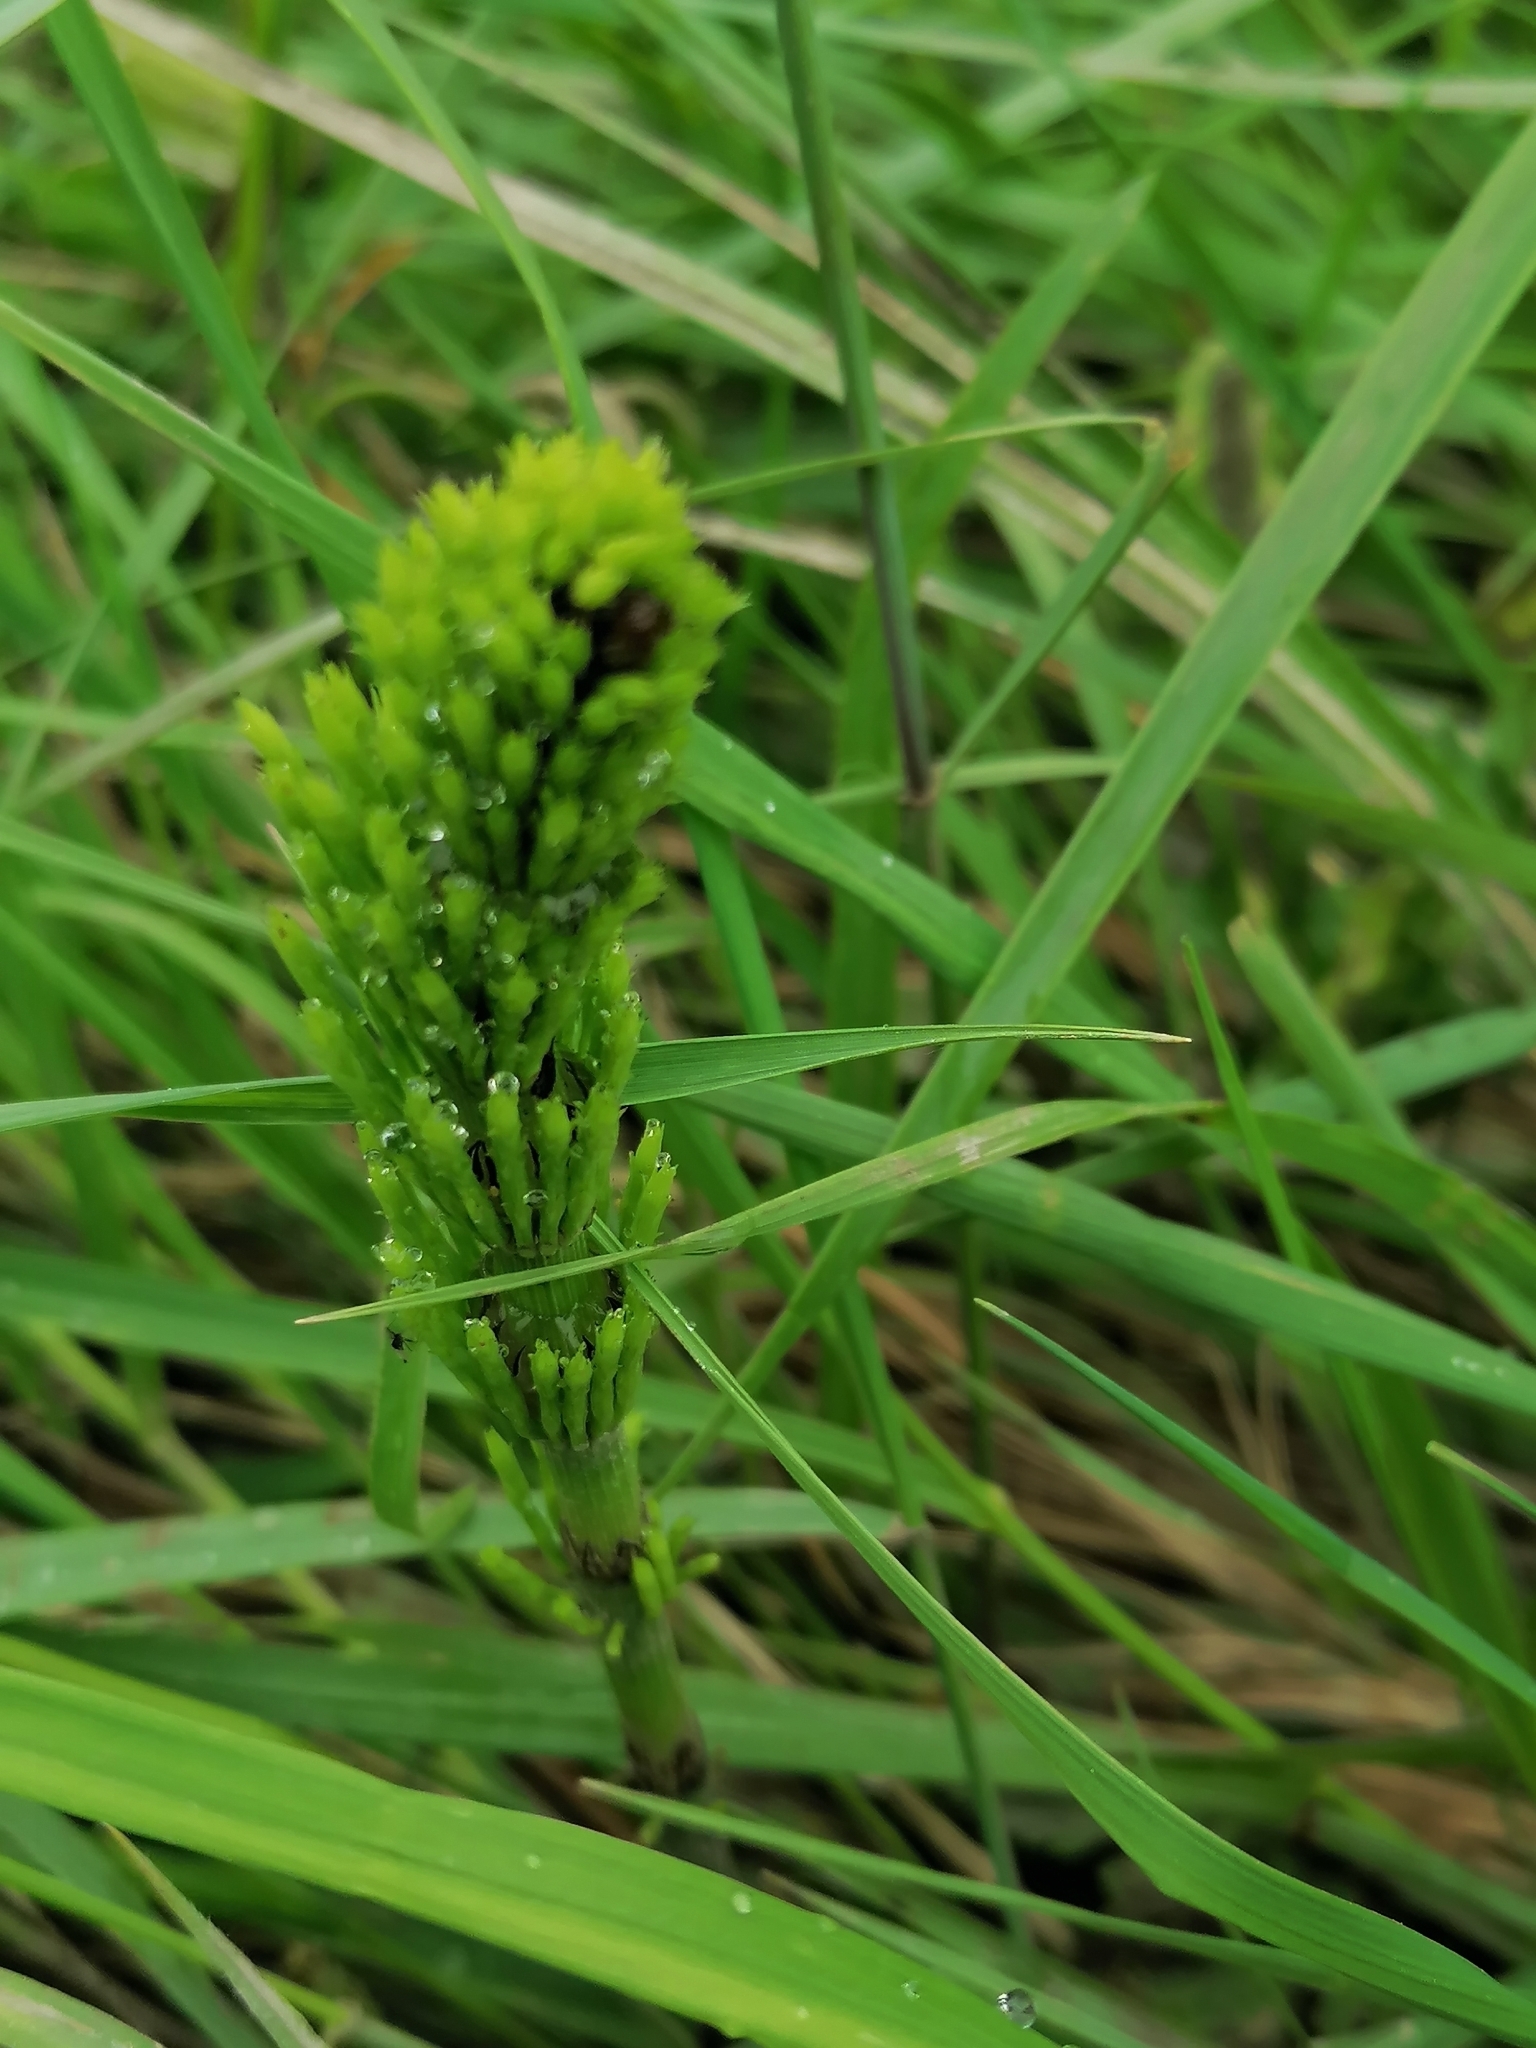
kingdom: Plantae
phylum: Tracheophyta
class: Polypodiopsida
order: Equisetales
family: Equisetaceae
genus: Equisetum
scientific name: Equisetum arvense
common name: Field horsetail
